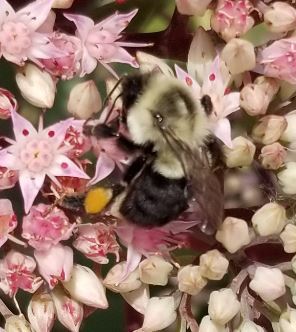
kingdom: Animalia
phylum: Arthropoda
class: Insecta
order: Hymenoptera
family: Apidae
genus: Bombus
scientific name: Bombus impatiens
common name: Common eastern bumble bee
